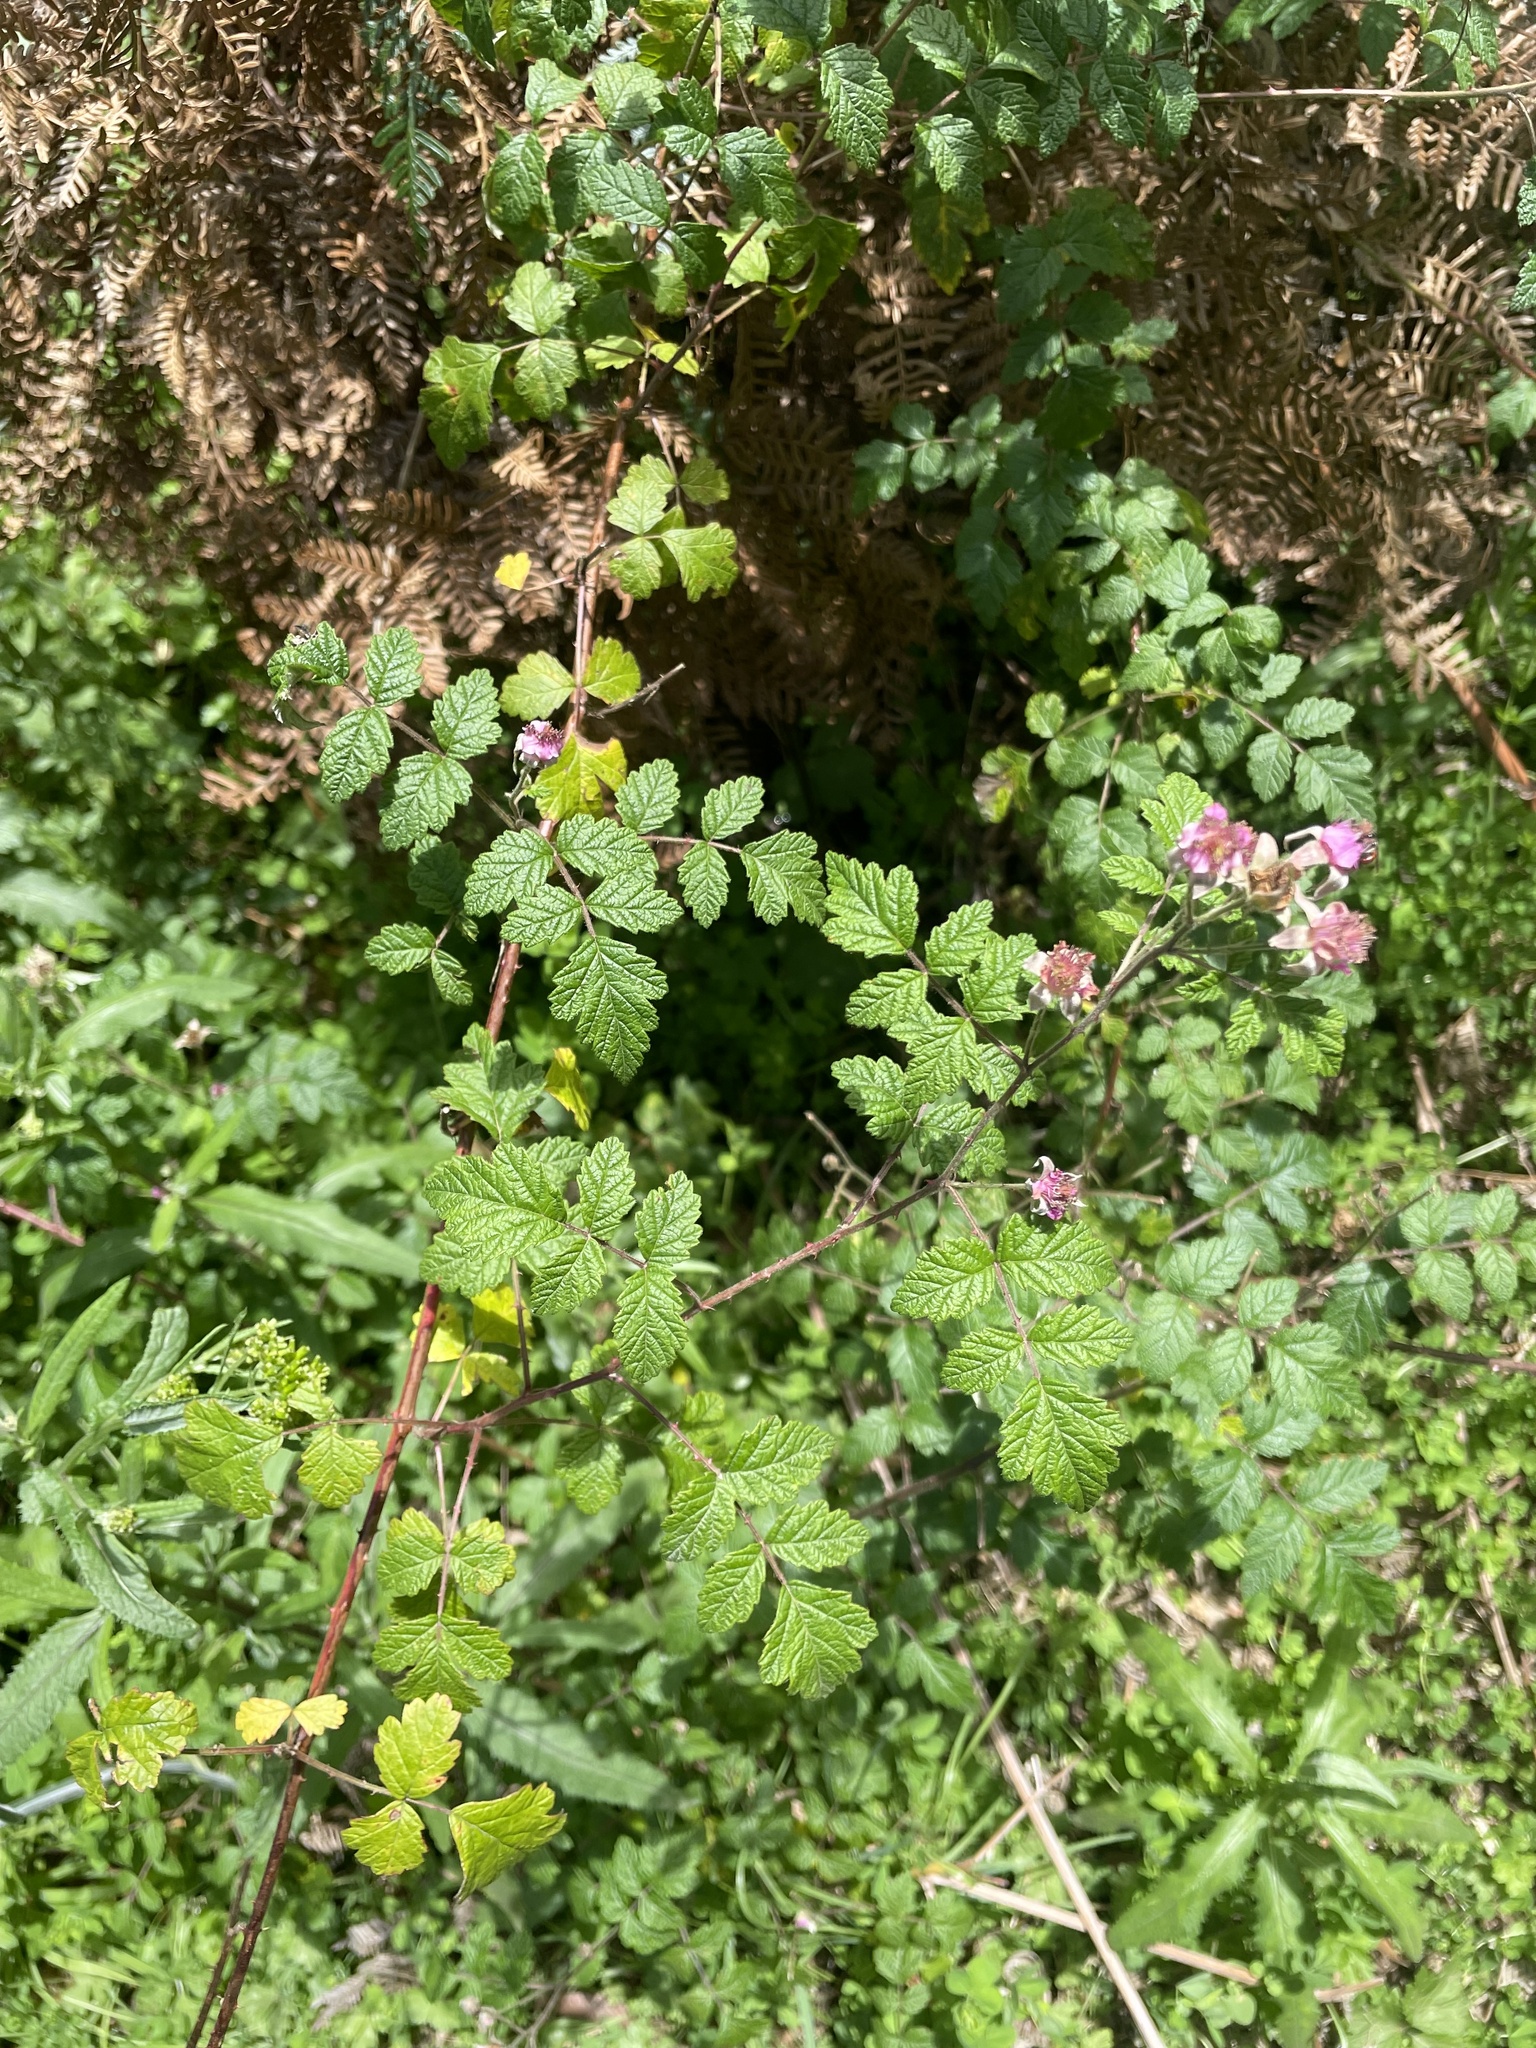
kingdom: Plantae
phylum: Tracheophyta
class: Magnoliopsida
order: Rosales
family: Rosaceae
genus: Rubus
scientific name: Rubus parvifolius
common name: Threeleaf blackberry
